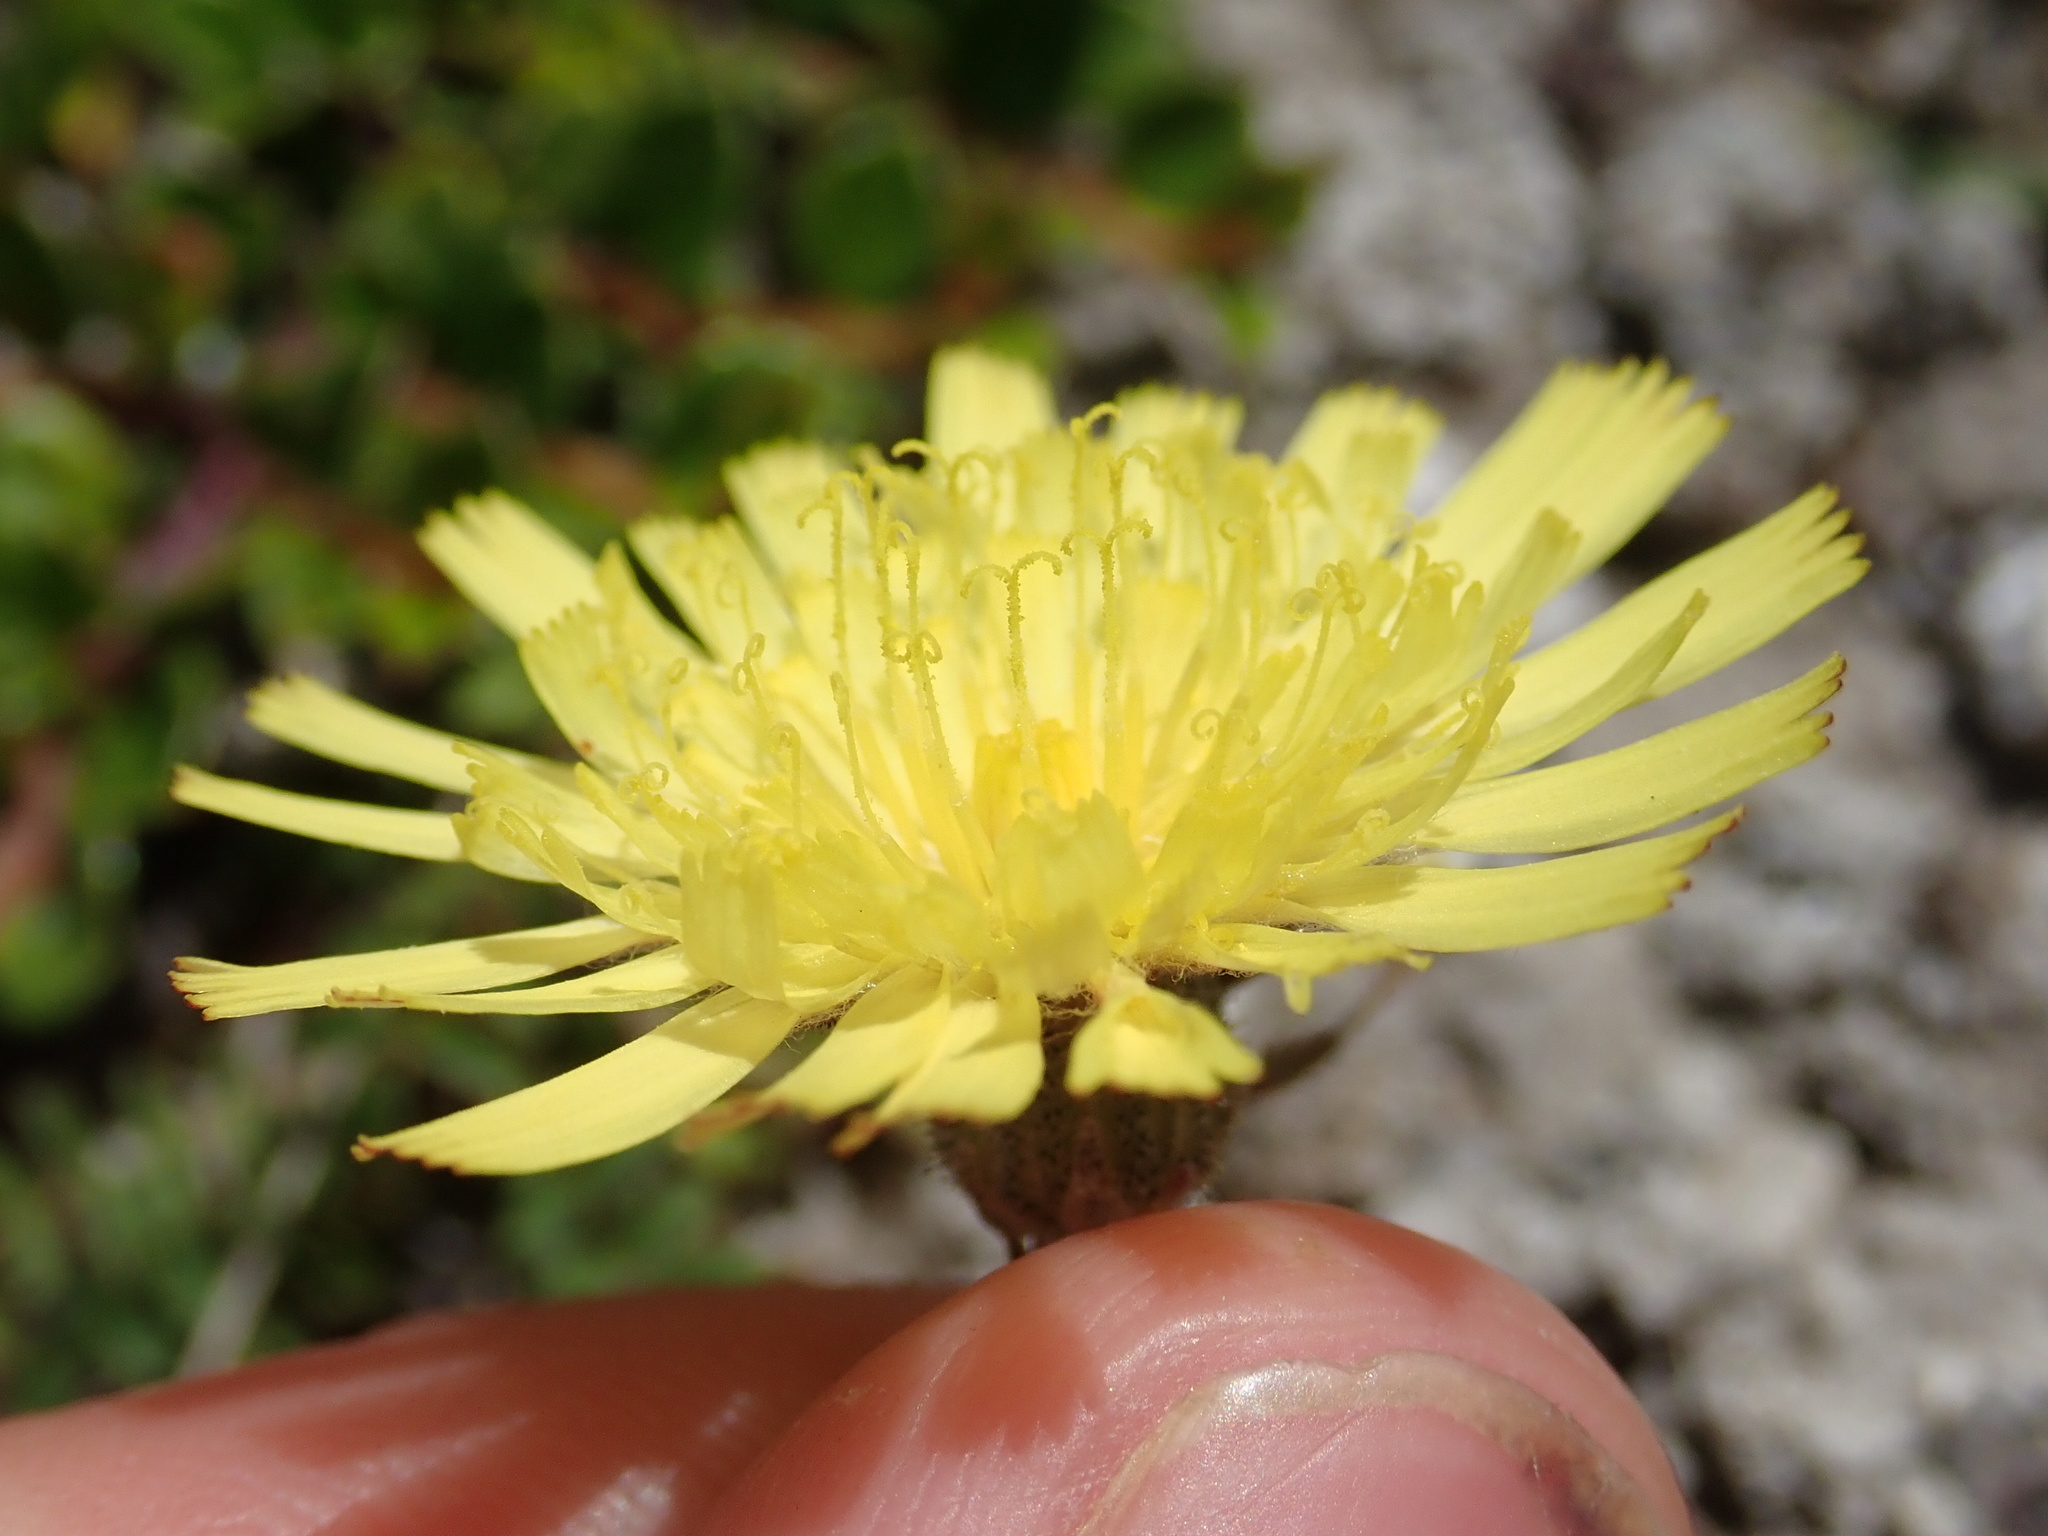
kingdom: Plantae
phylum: Tracheophyta
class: Magnoliopsida
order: Asterales
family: Asteraceae
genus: Pilosella
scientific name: Pilosella officinarum
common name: Mouse-ear hawkweed
